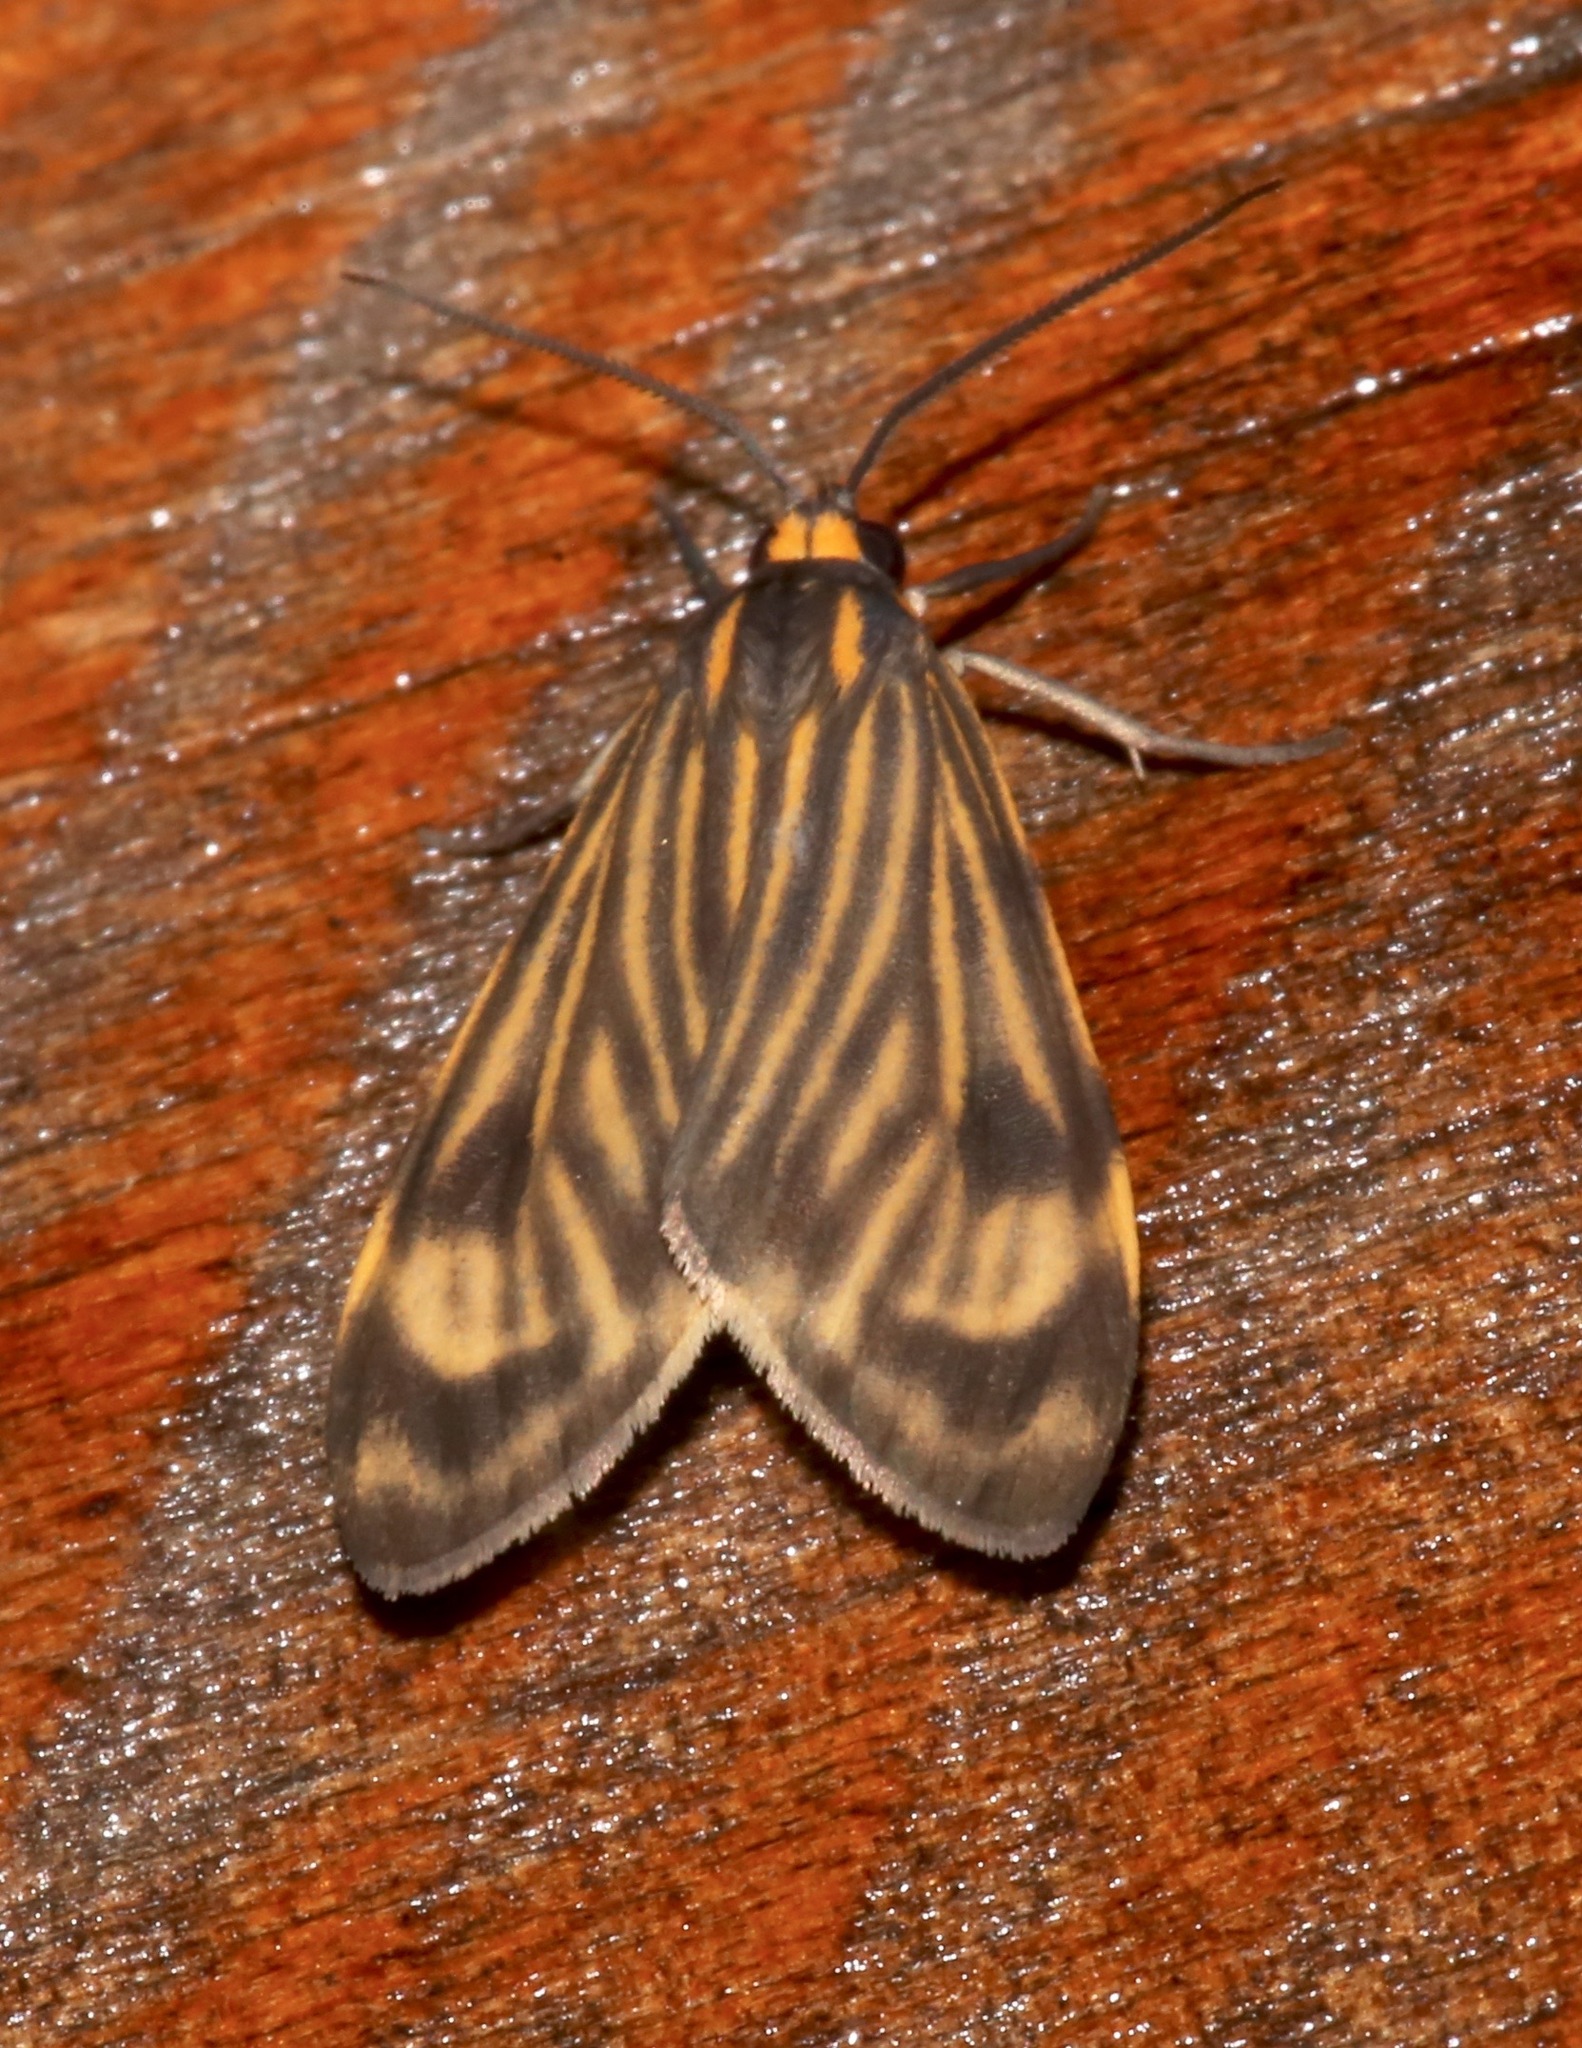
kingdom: Animalia
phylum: Arthropoda
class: Insecta
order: Lepidoptera
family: Erebidae
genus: Eucereon
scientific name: Eucereon costulatum
